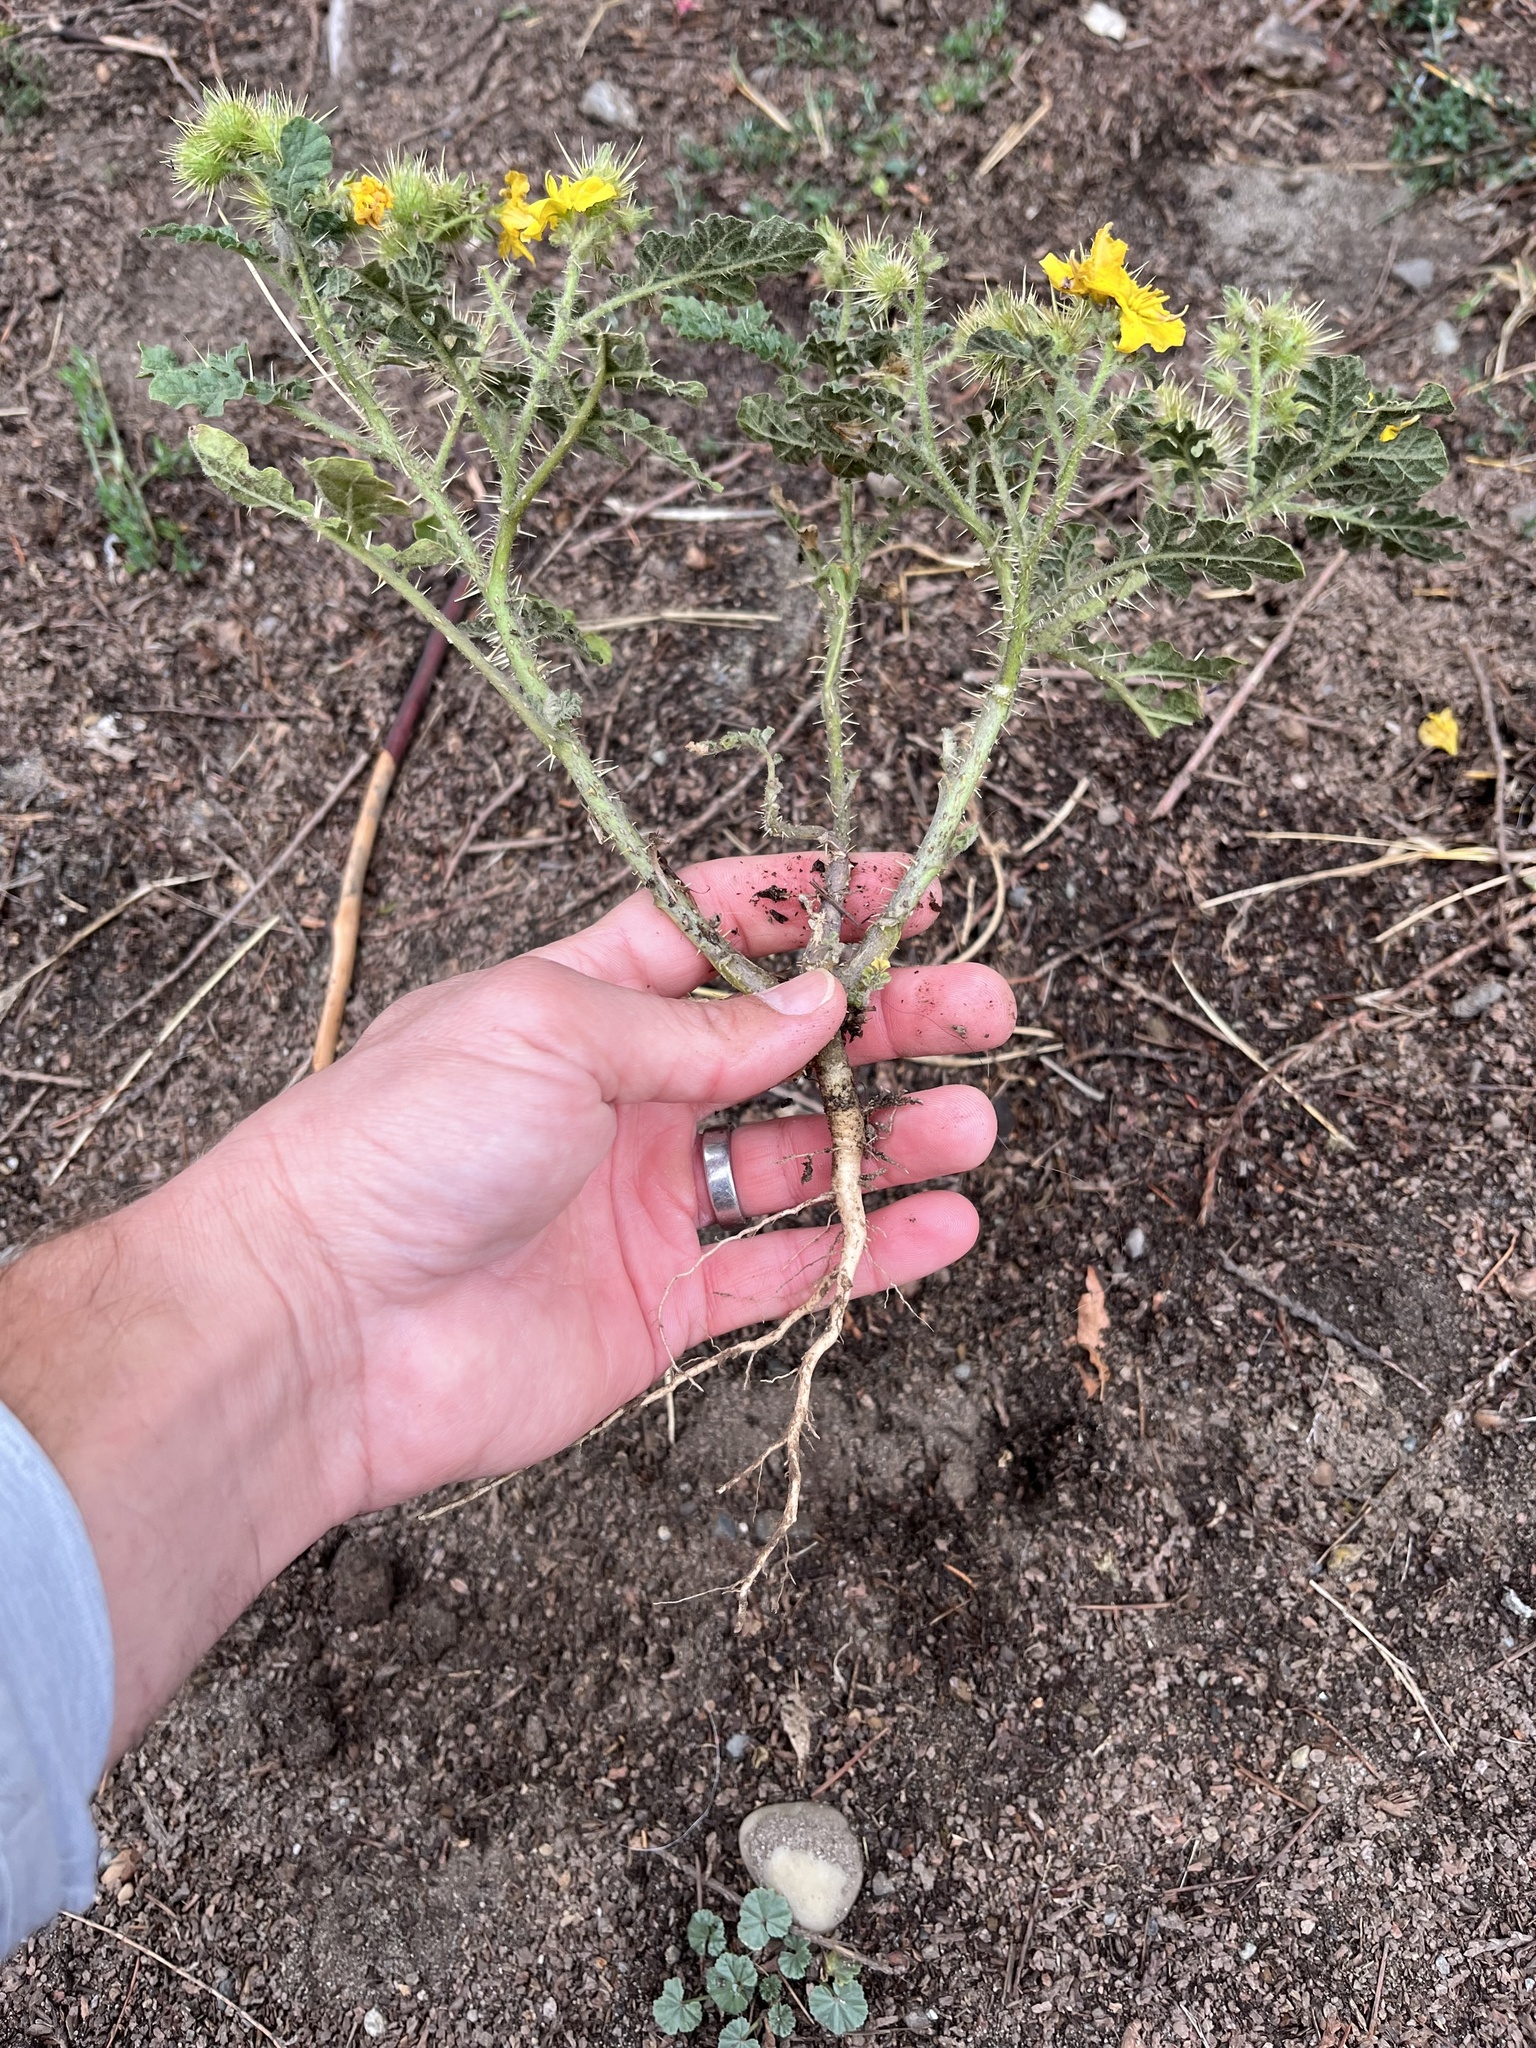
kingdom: Plantae
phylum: Tracheophyta
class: Magnoliopsida
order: Solanales
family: Solanaceae
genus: Solanum
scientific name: Solanum angustifolium
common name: Buffalobur nightshade
